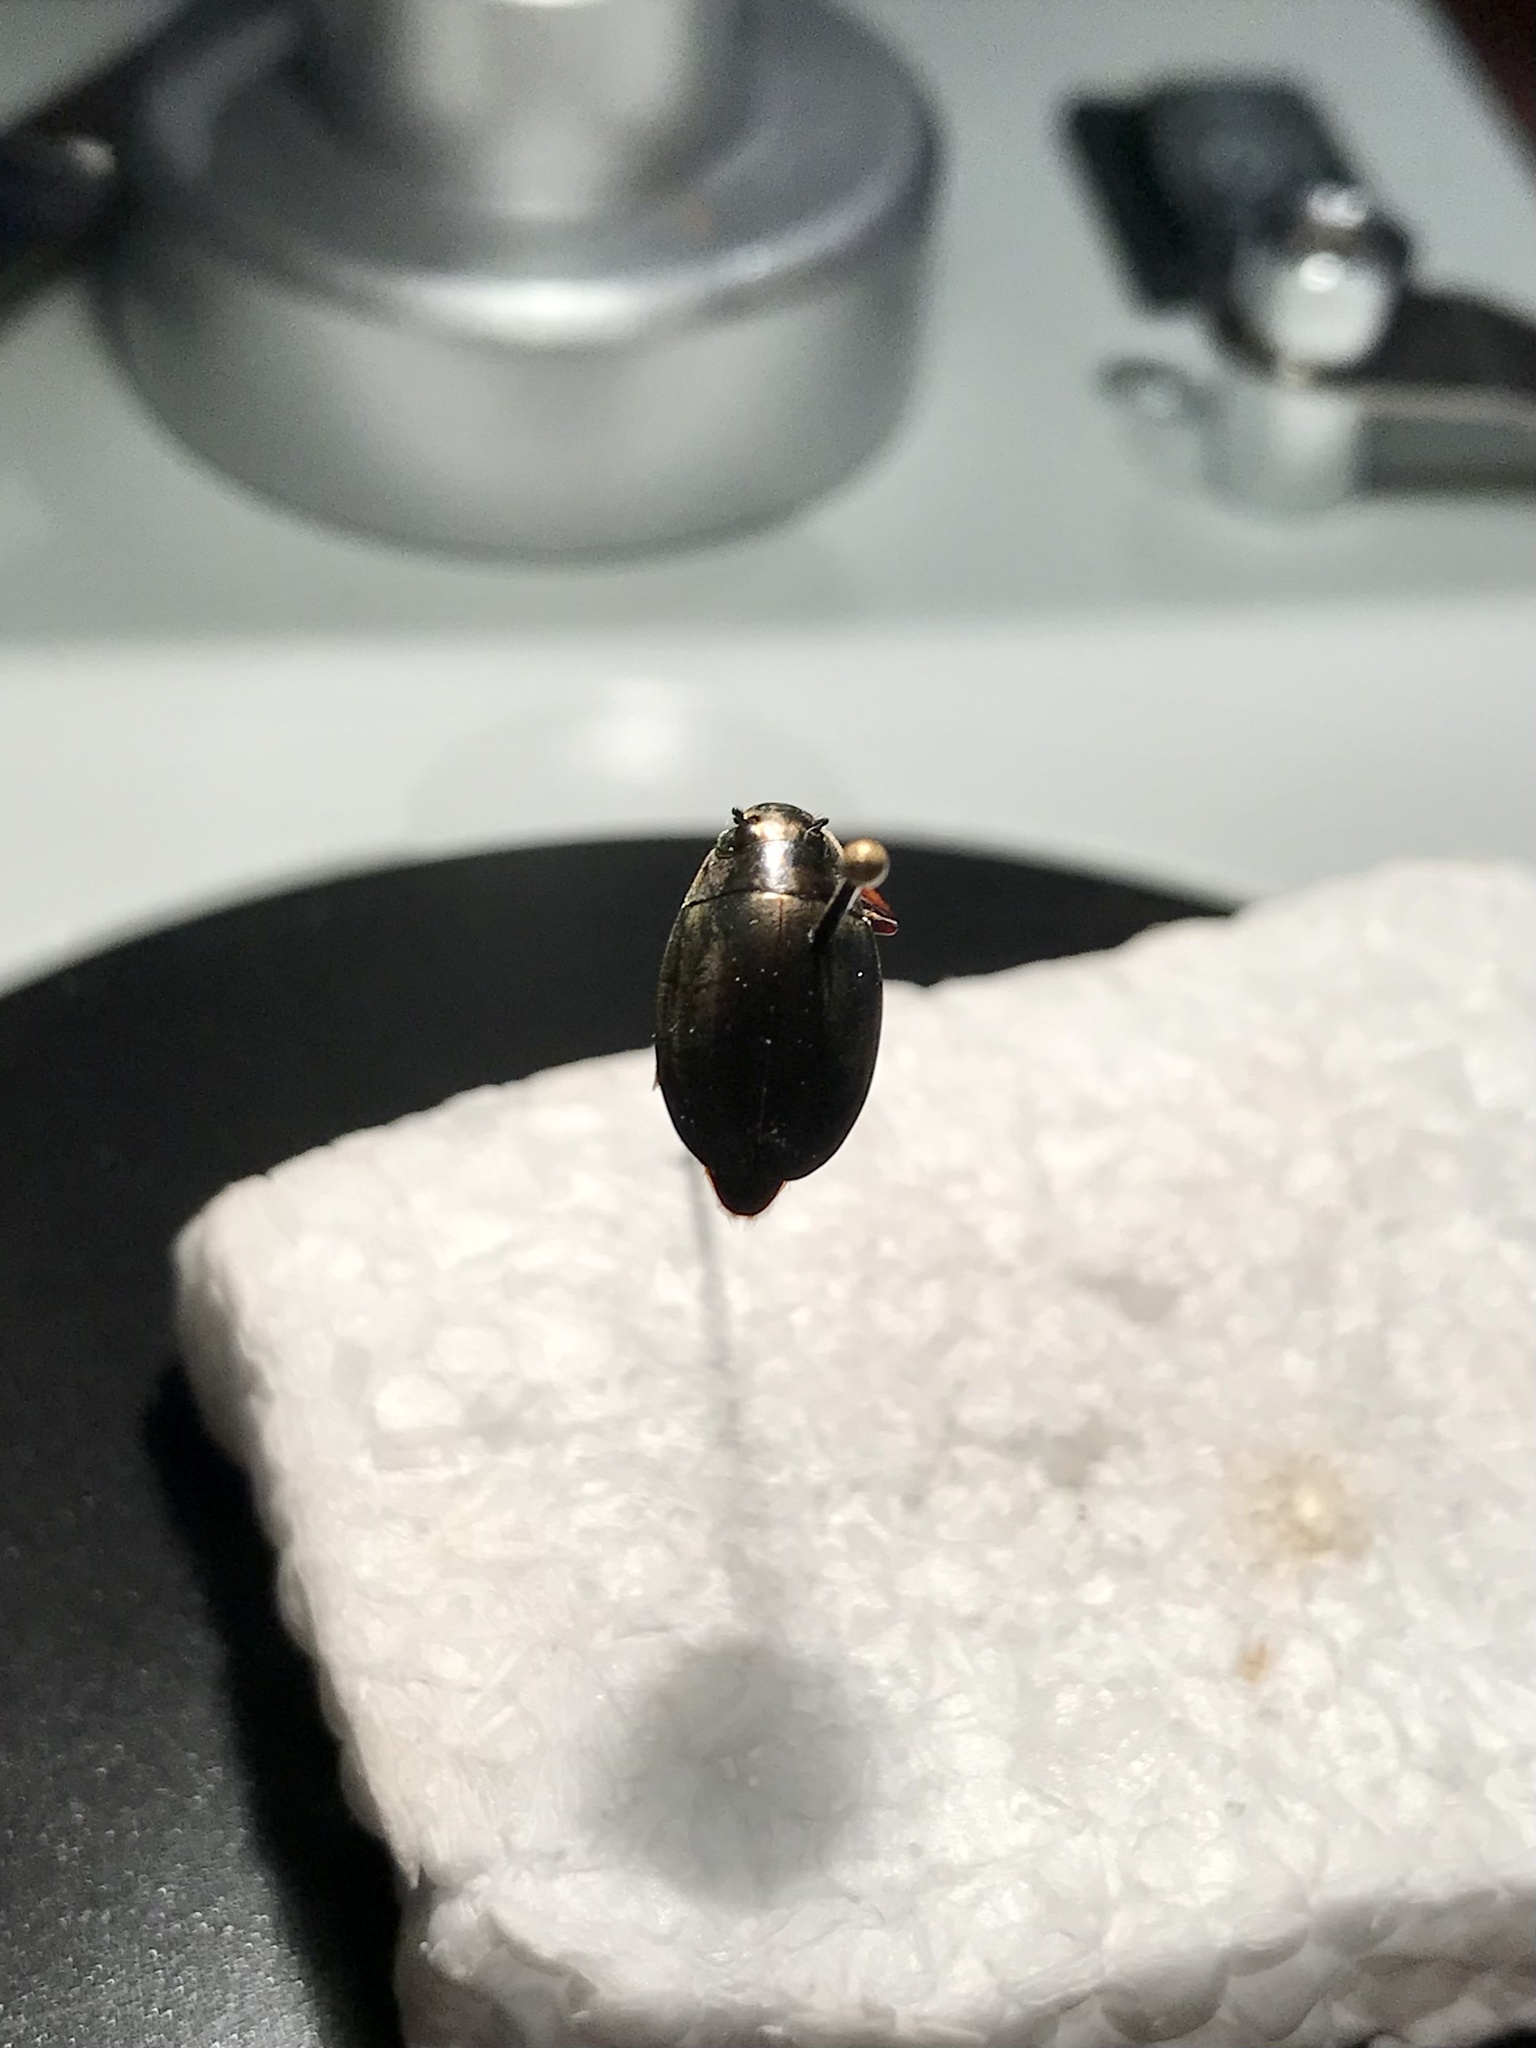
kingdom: Animalia
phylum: Arthropoda
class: Insecta
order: Coleoptera
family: Gyrinidae
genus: Dineutus
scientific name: Dineutus assimilis
